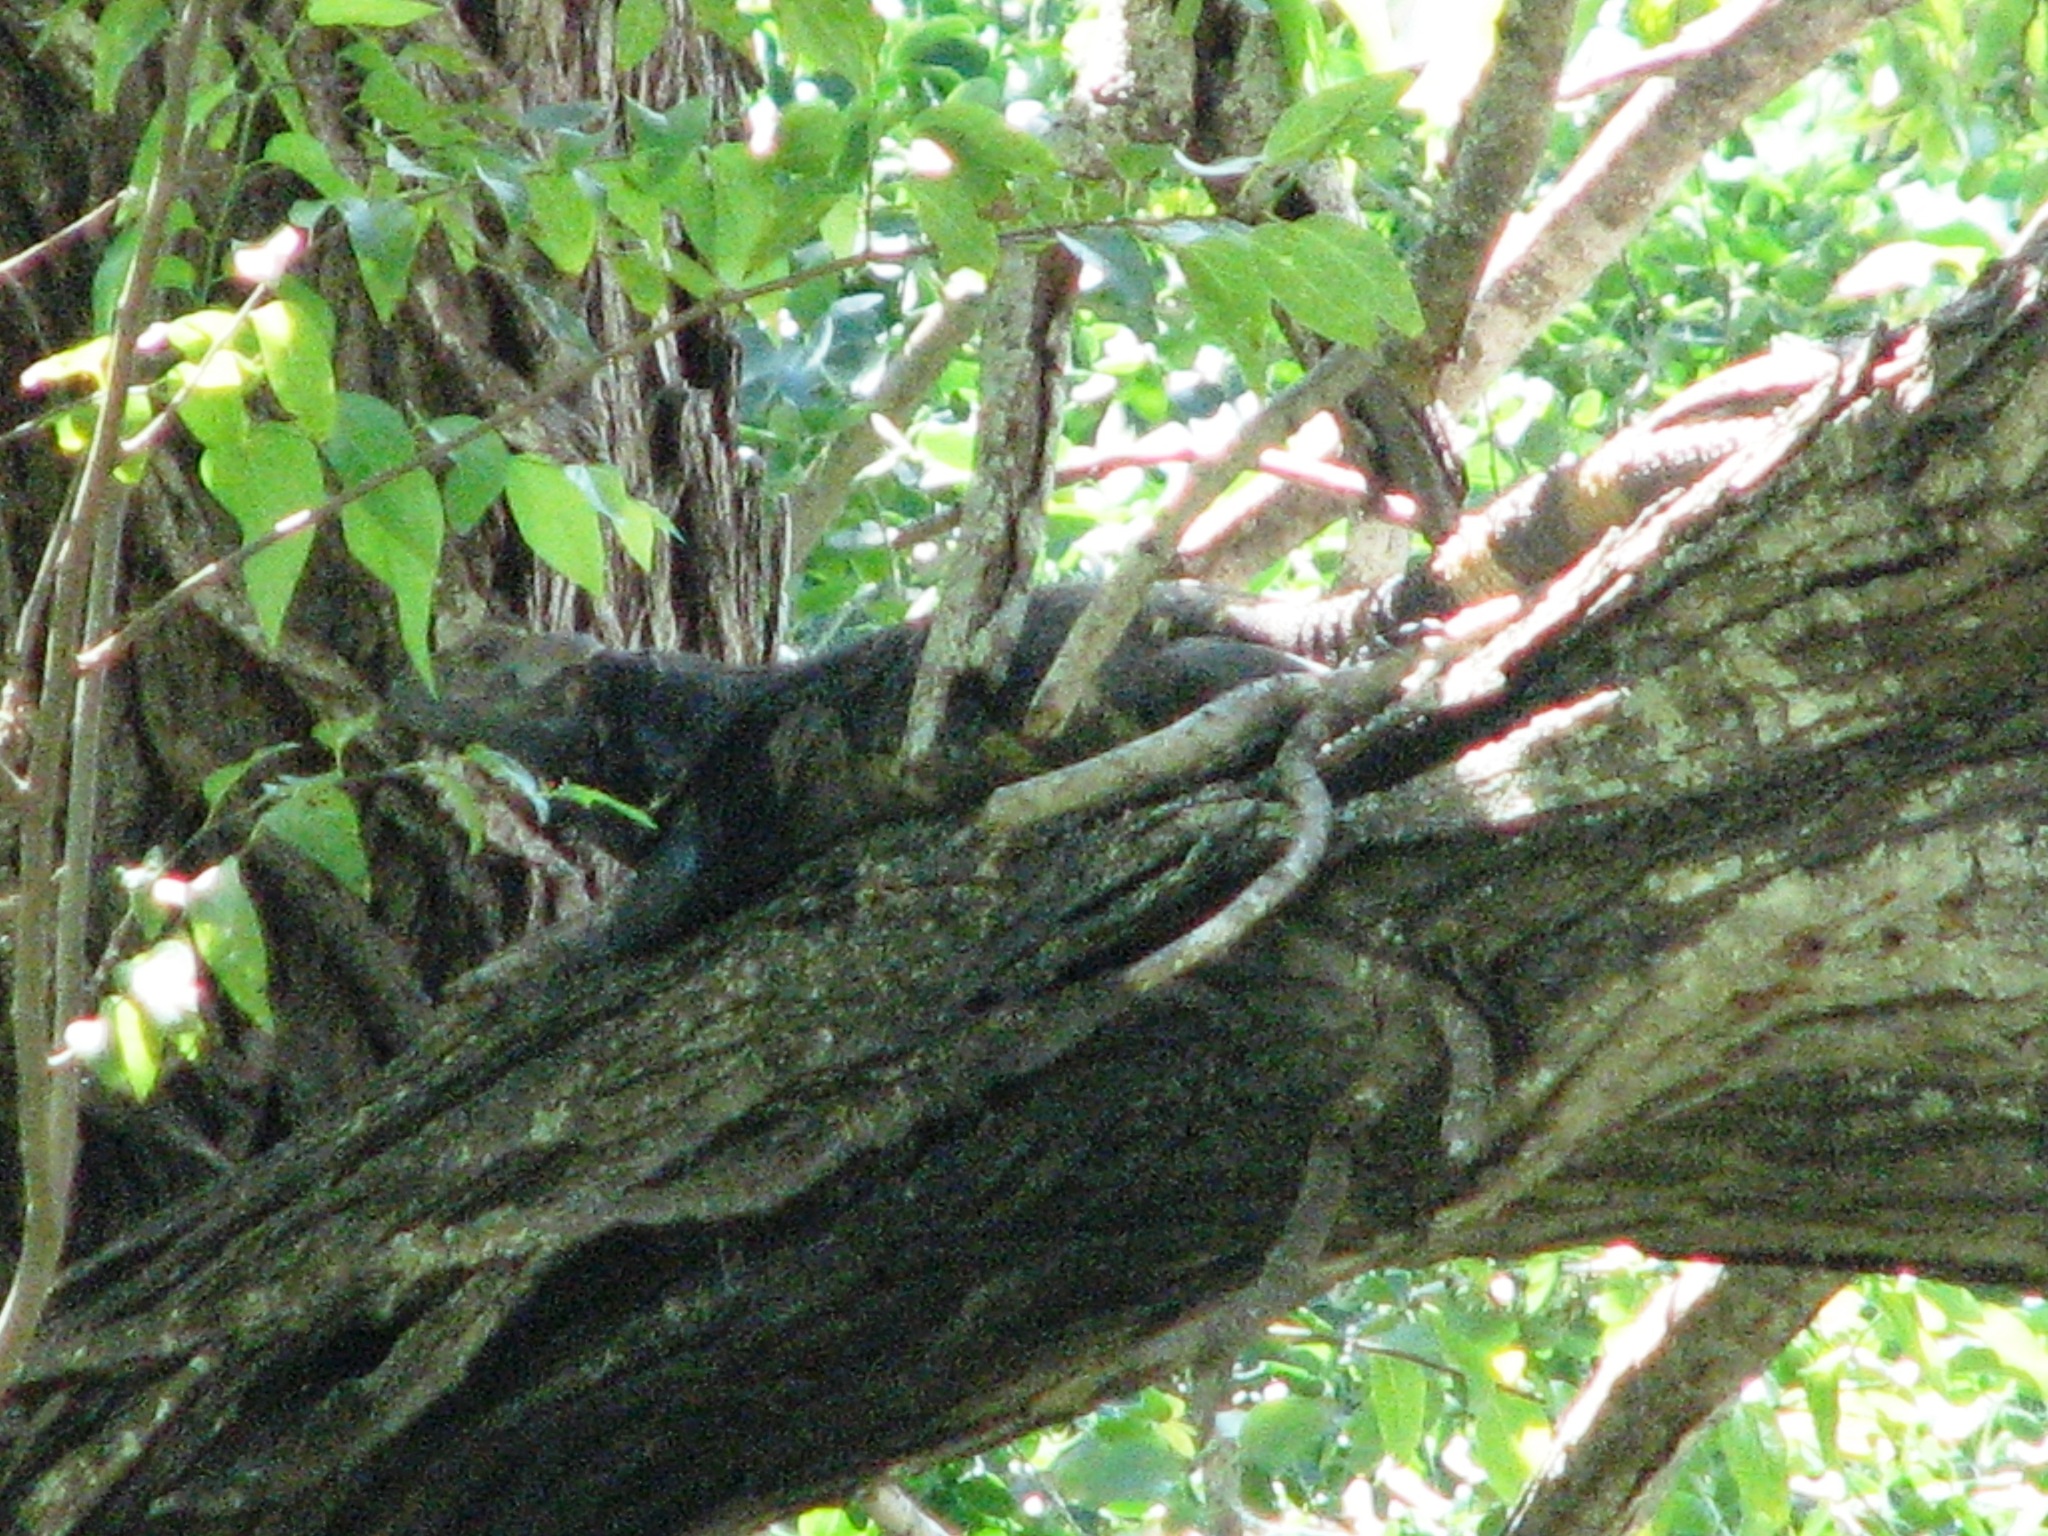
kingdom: Animalia
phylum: Chordata
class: Squamata
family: Iguanidae
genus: Ctenosaura
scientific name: Ctenosaura pectinata
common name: Guerreran spiny-tailed iguana
